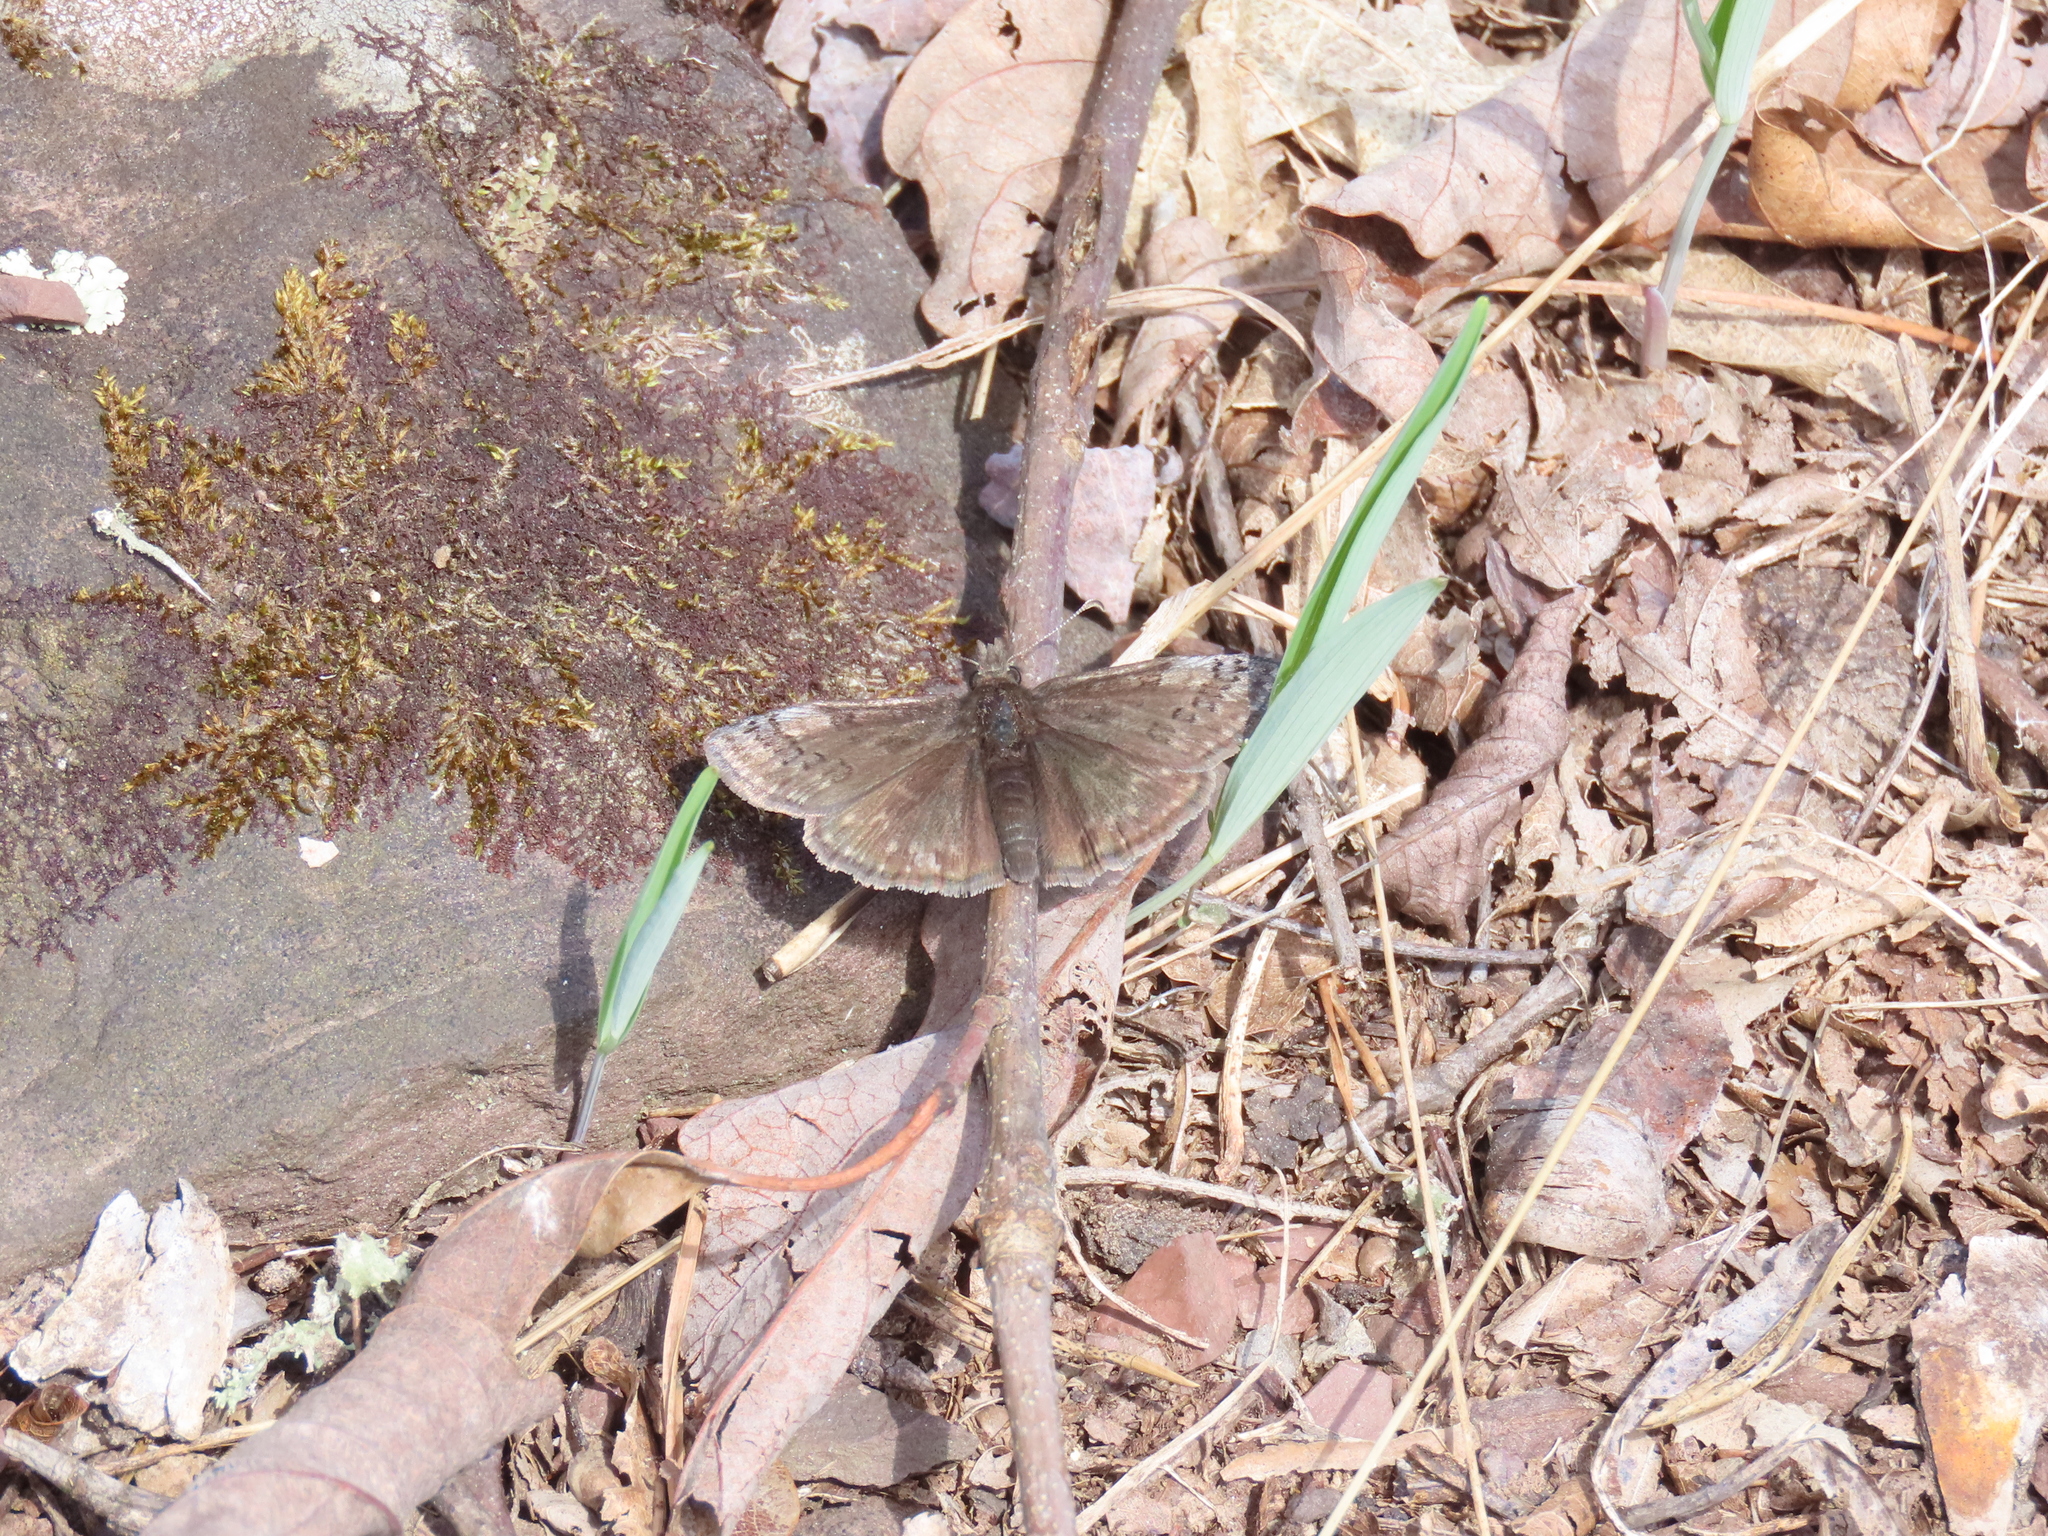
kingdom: Animalia
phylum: Arthropoda
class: Insecta
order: Lepidoptera
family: Hesperiidae
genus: Erynnis
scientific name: Erynnis icelus
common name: Dreamy duskywing
